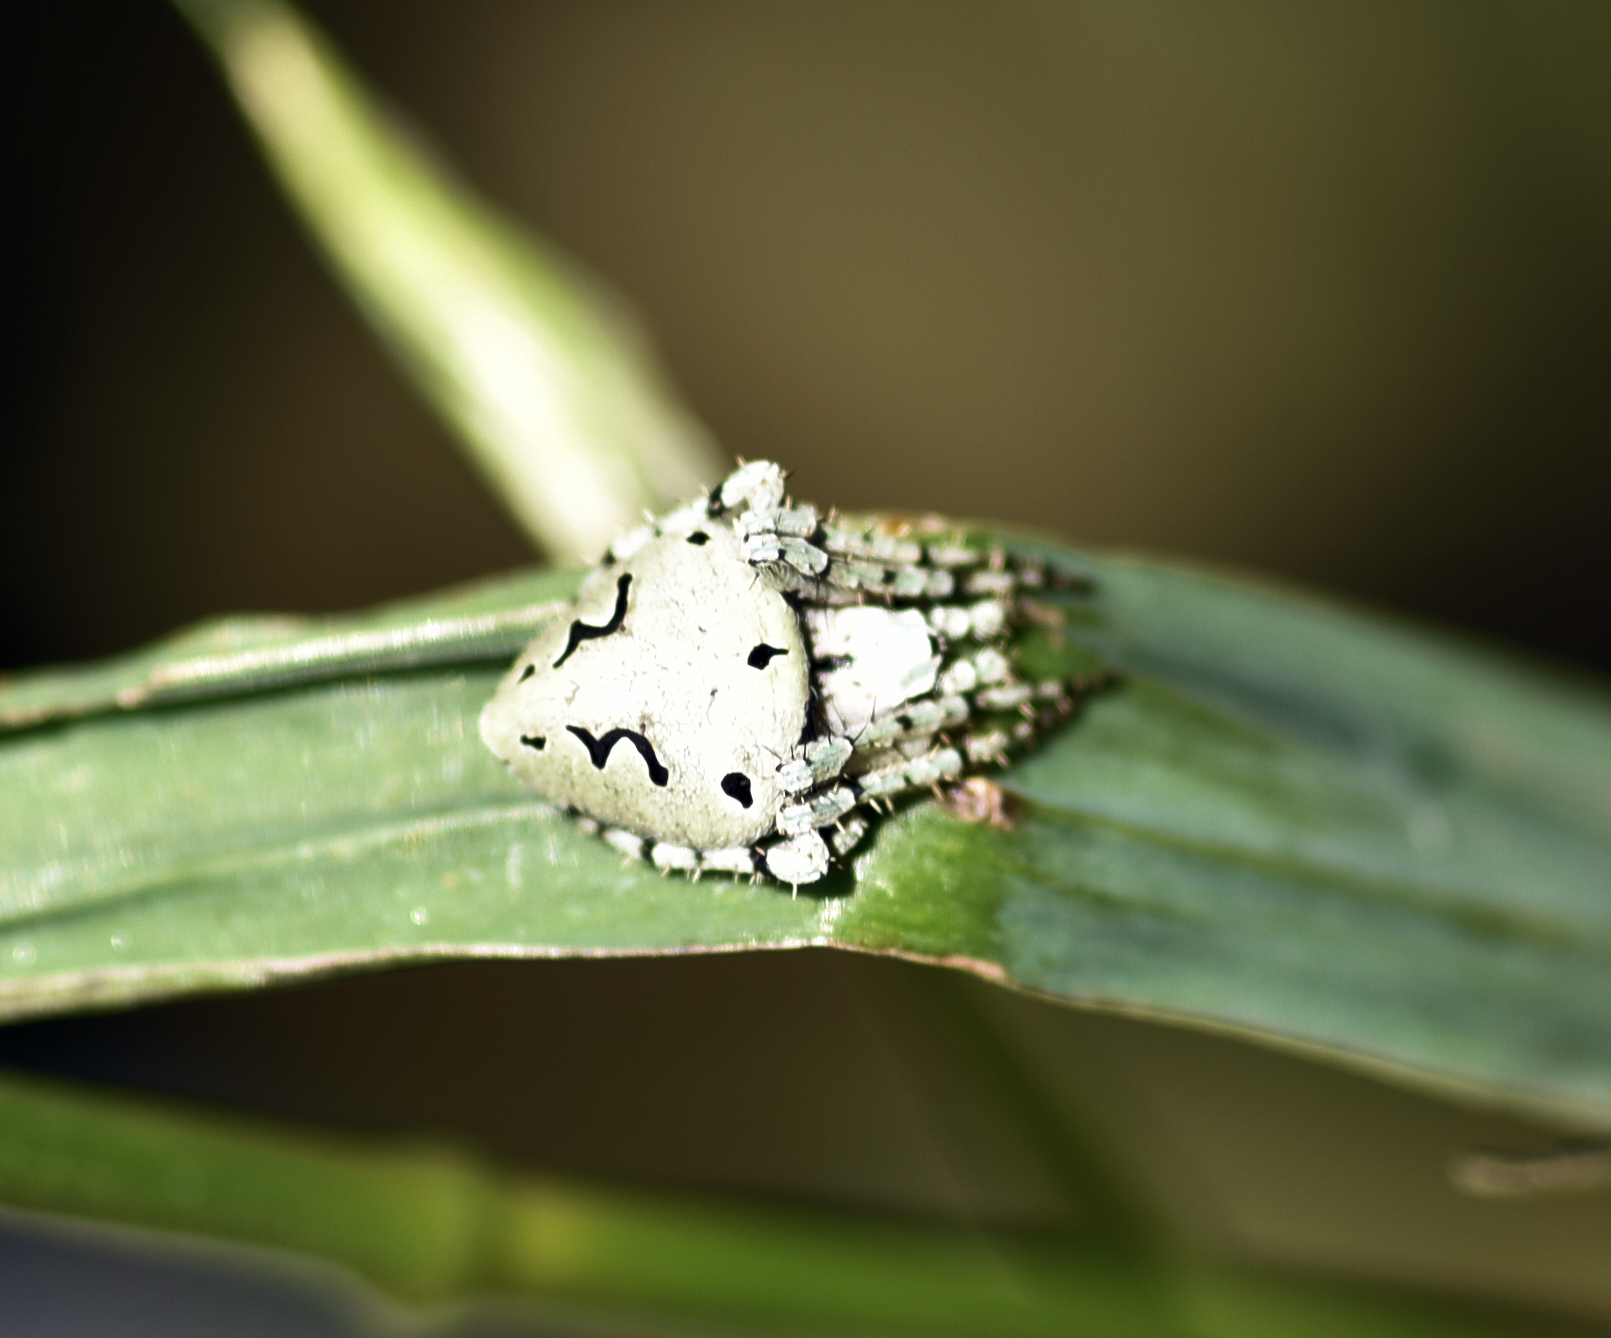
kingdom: Animalia
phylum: Arthropoda
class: Arachnida
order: Araneae
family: Araneidae
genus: Eustala
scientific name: Eustala anastera
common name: Orb weavers
